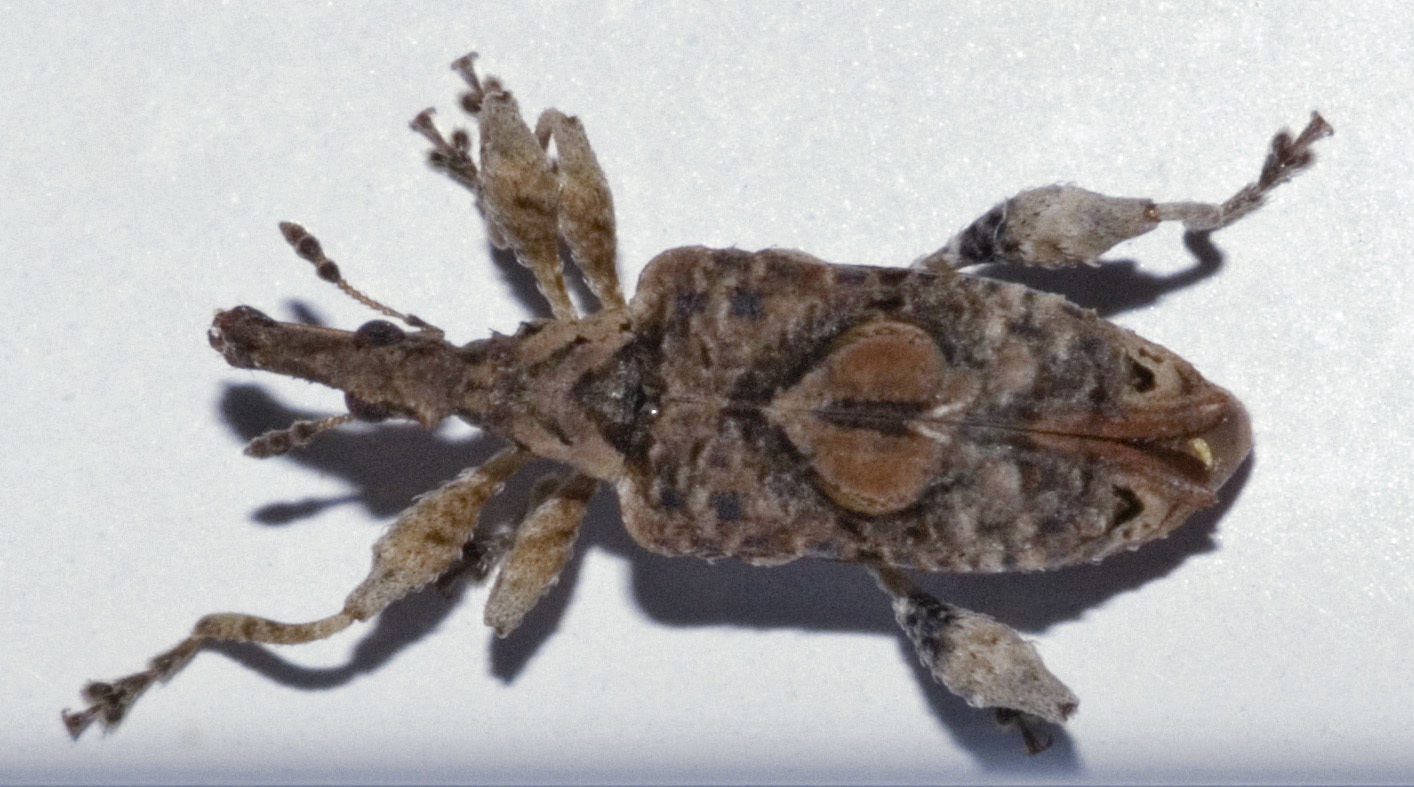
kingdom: Animalia
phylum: Arthropoda
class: Insecta
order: Coleoptera
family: Curculionidae
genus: Stephanorhynchus
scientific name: Stephanorhynchus curvipes
